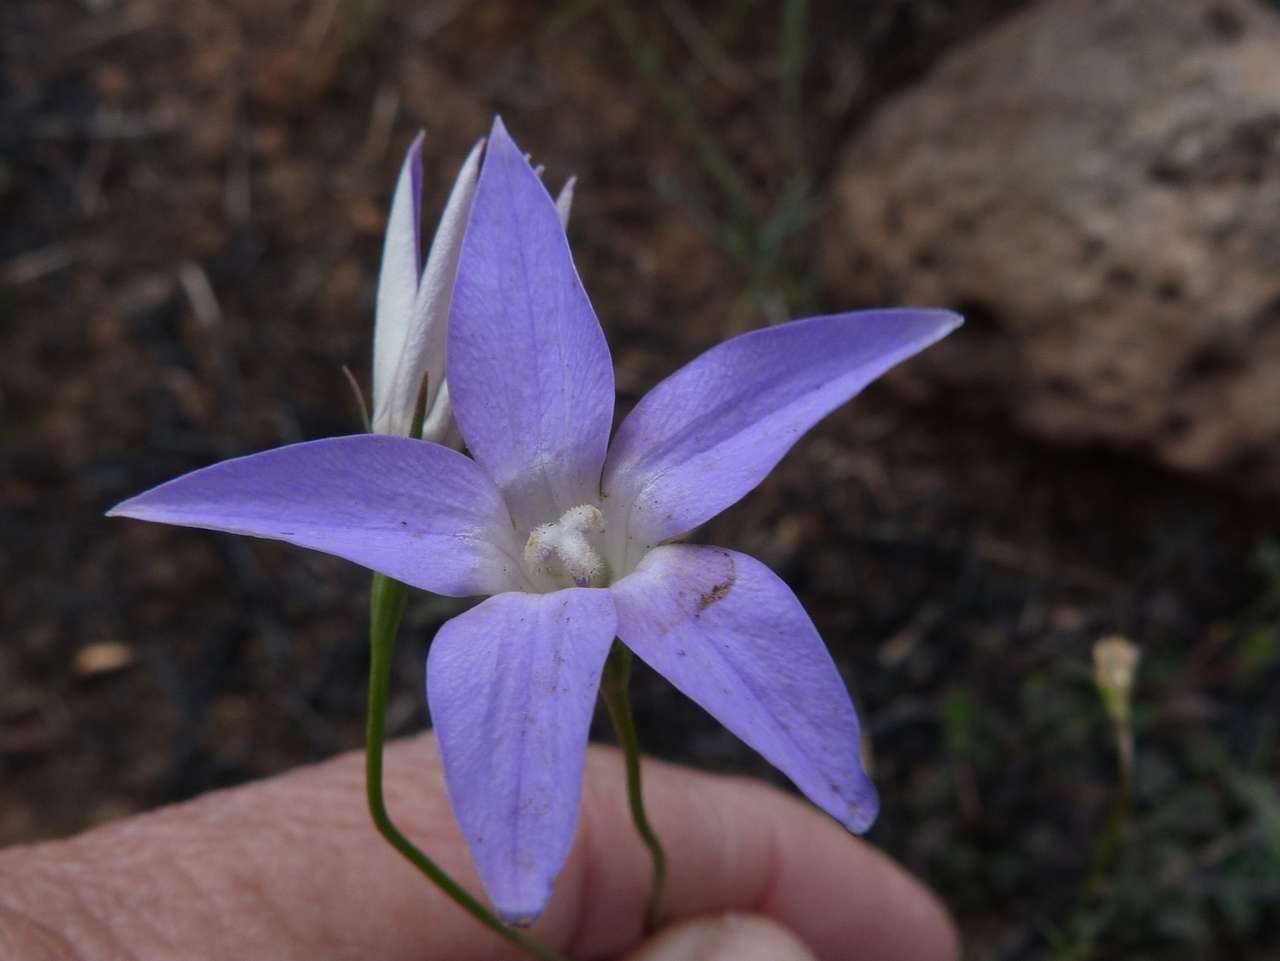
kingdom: Plantae
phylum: Tracheophyta
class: Magnoliopsida
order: Asterales
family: Campanulaceae
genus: Wahlenbergia
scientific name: Wahlenbergia luteola
